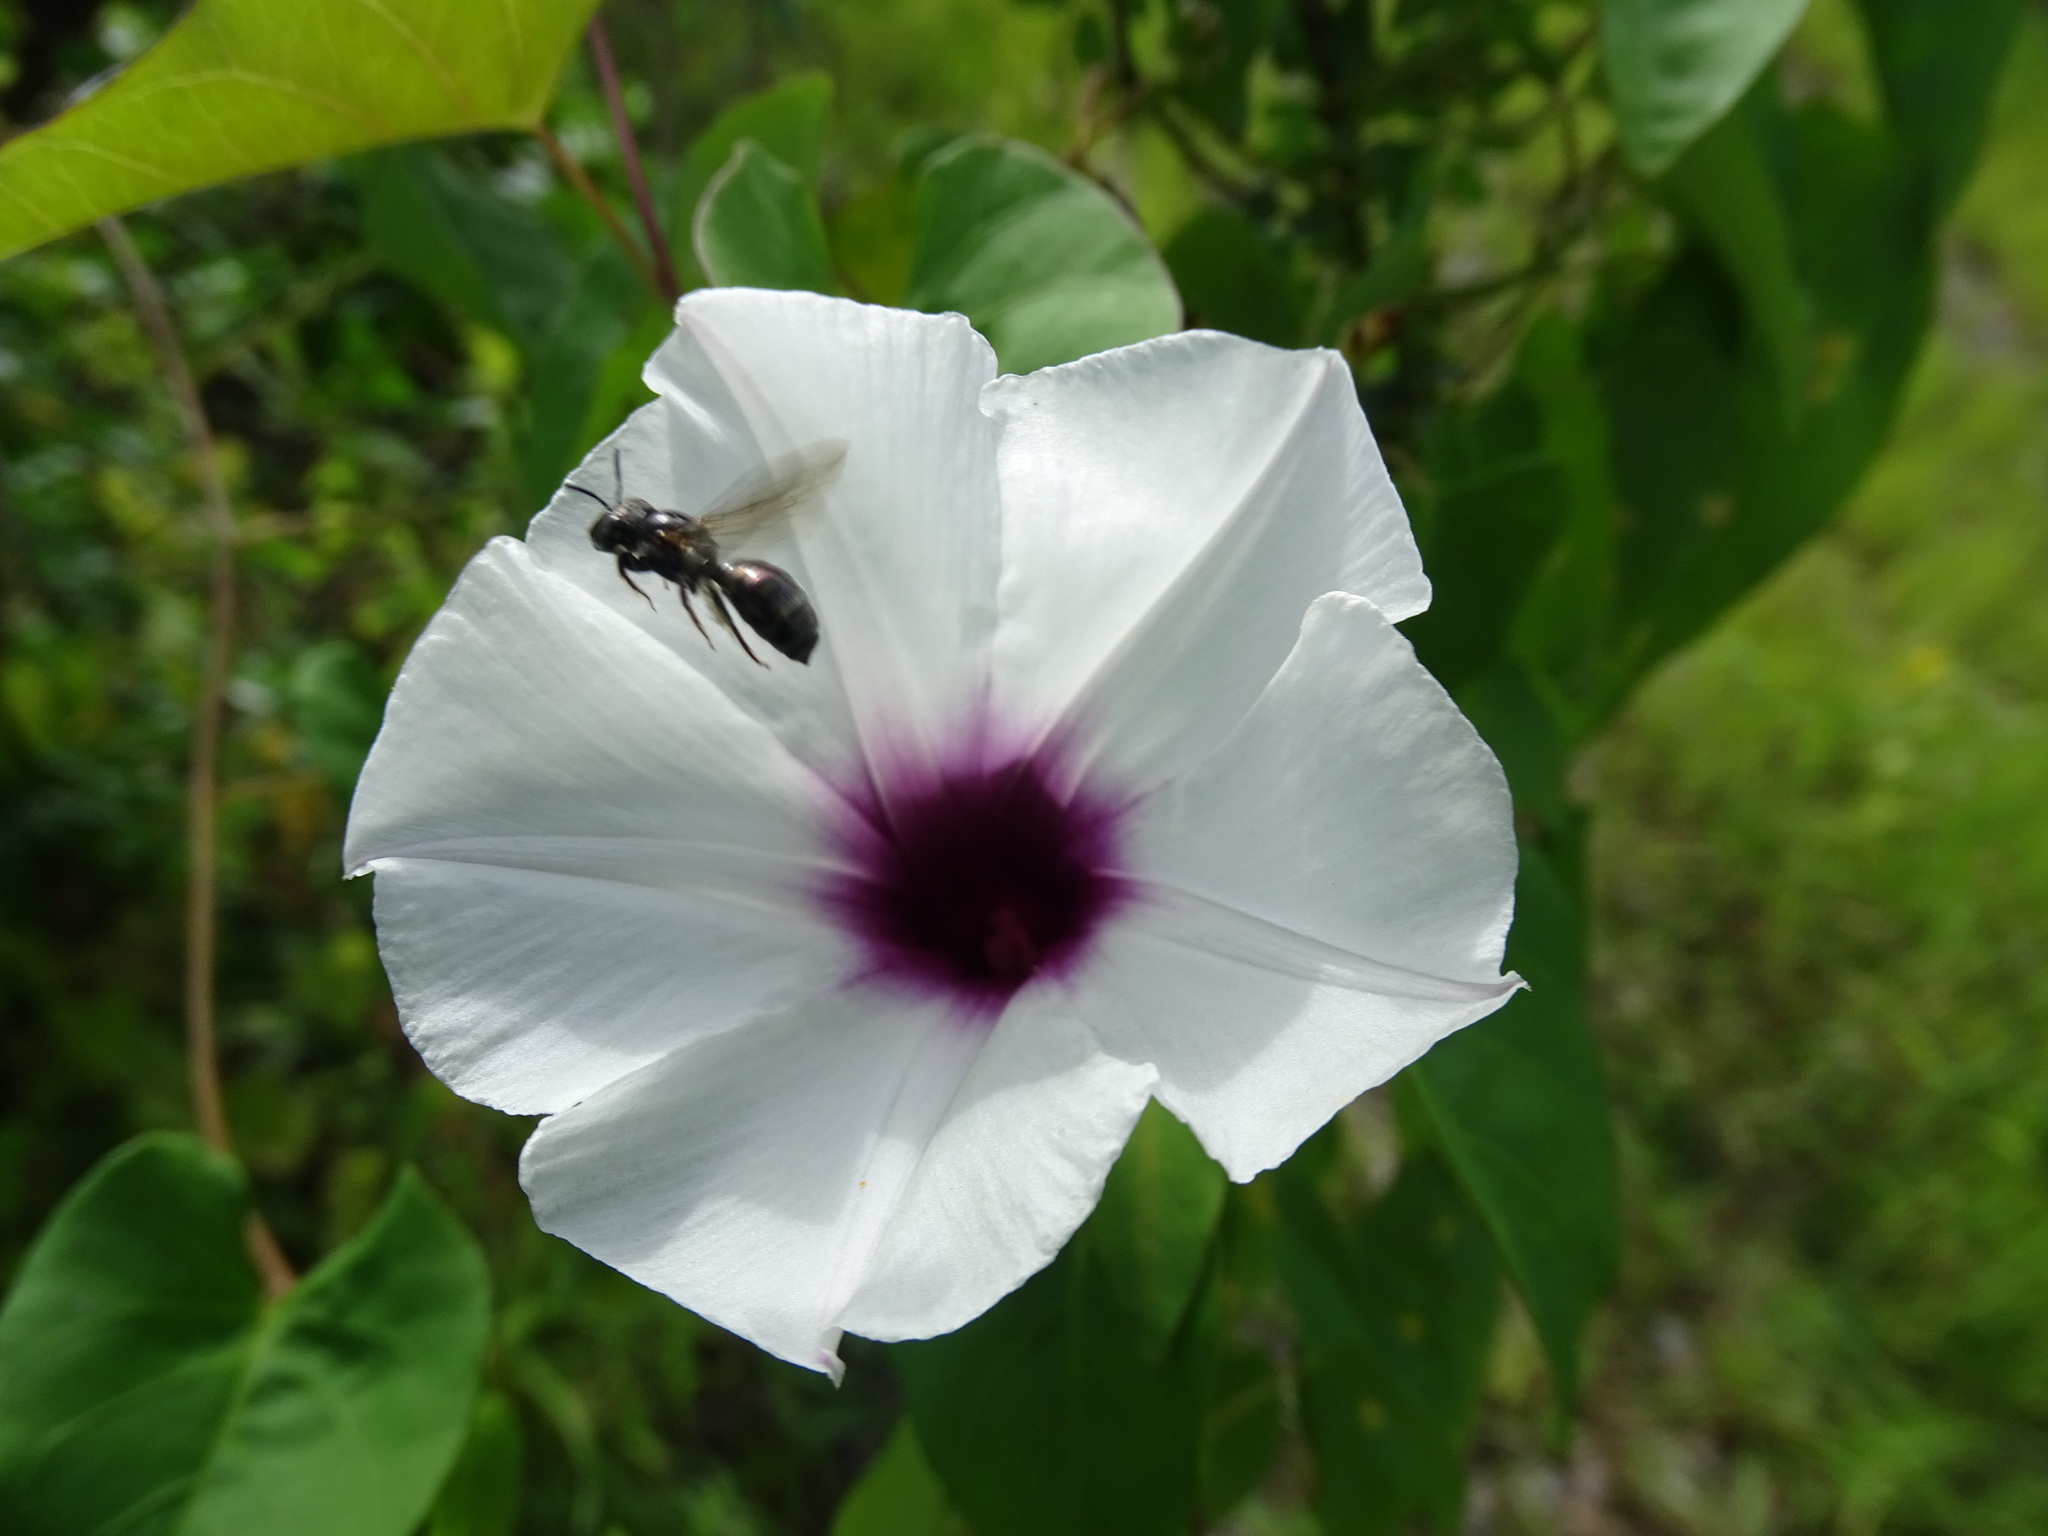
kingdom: Plantae
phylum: Tracheophyta
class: Magnoliopsida
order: Solanales
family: Convolvulaceae
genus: Ipomoea
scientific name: Ipomoea anisomeres
